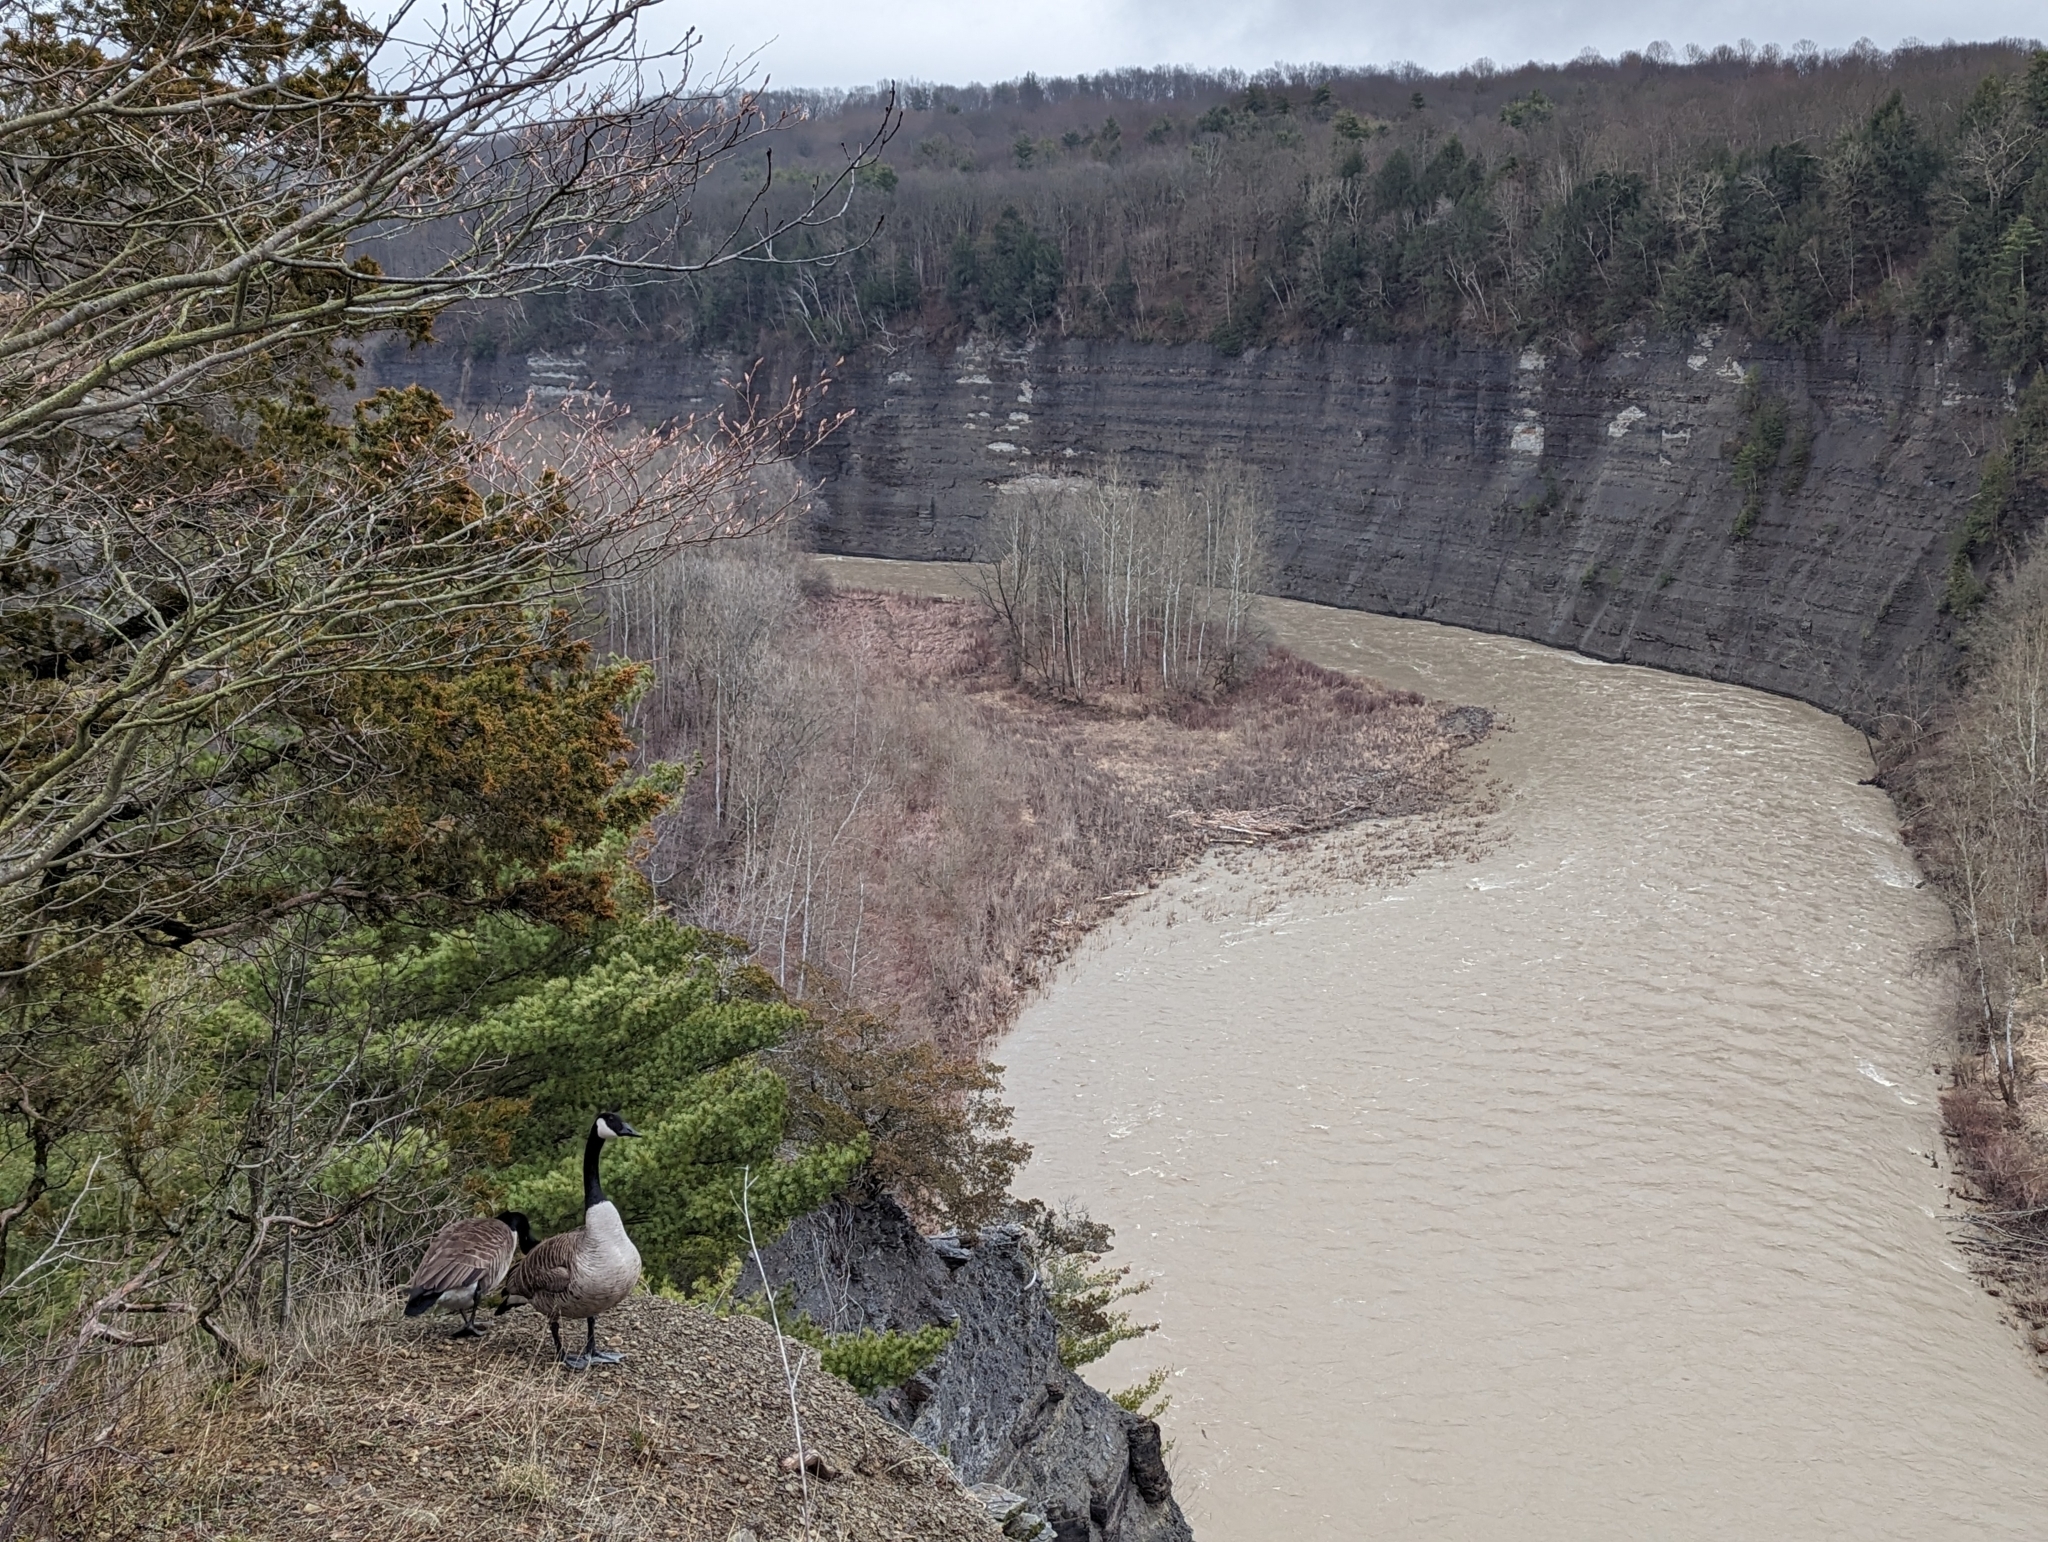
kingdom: Animalia
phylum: Chordata
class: Aves
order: Anseriformes
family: Anatidae
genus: Branta
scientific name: Branta canadensis
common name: Canada goose
